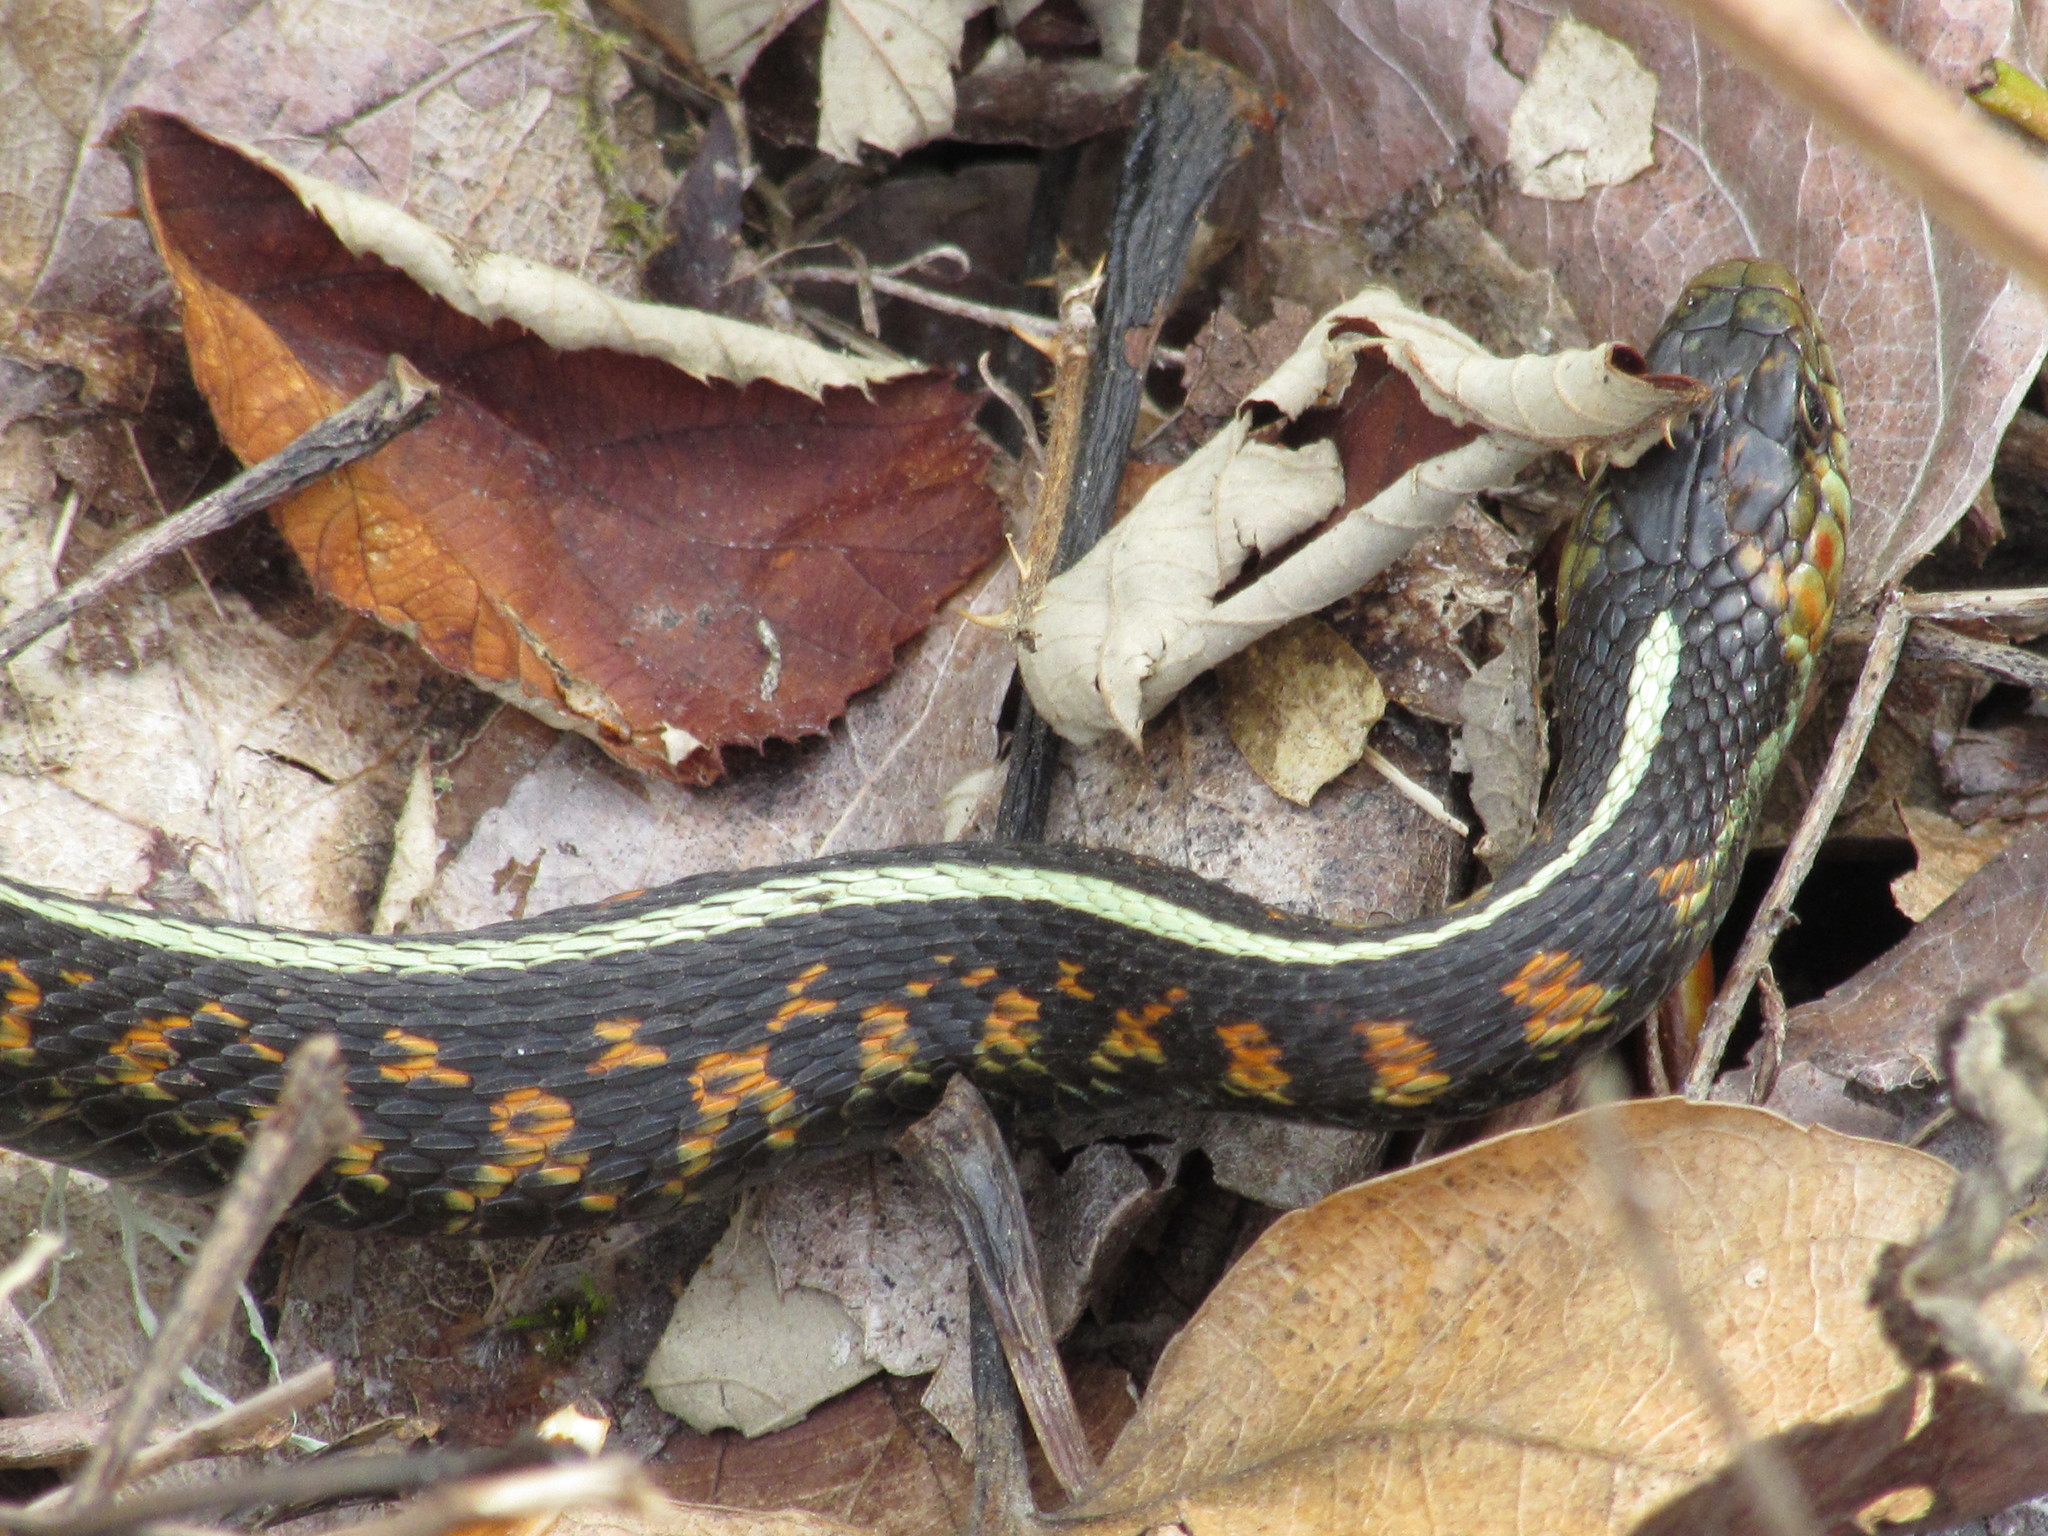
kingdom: Animalia
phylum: Chordata
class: Squamata
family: Colubridae
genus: Thamnophis
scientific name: Thamnophis sirtalis
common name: Common garter snake
